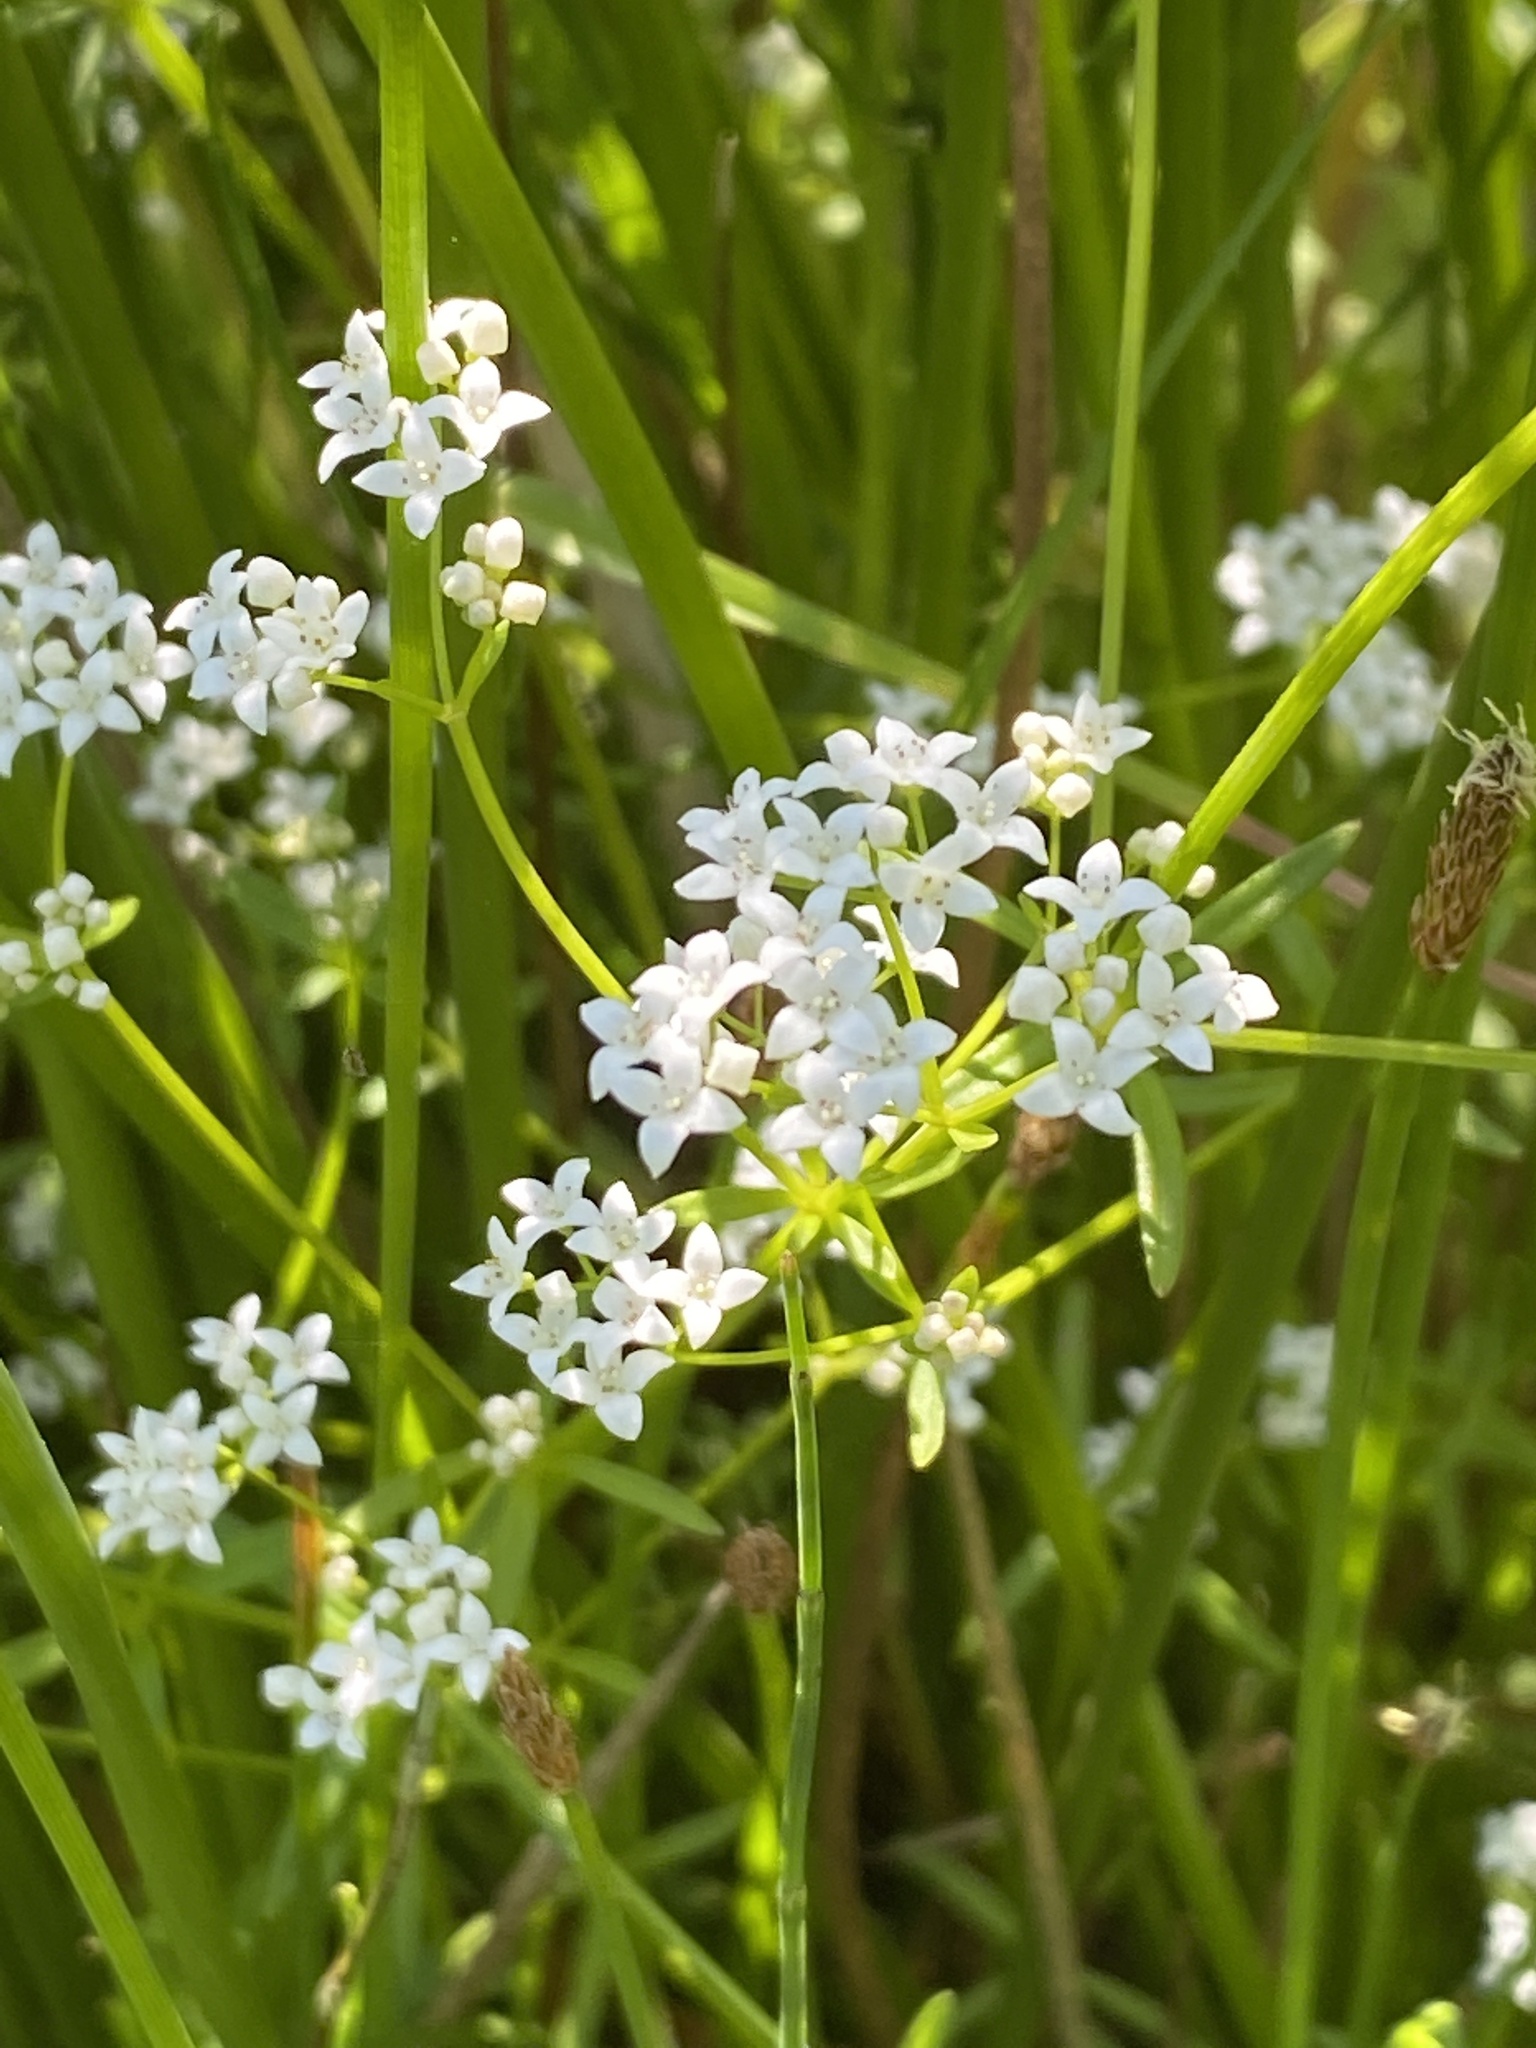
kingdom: Plantae
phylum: Tracheophyta
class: Magnoliopsida
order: Gentianales
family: Rubiaceae
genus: Galium
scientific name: Galium palustre
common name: Common marsh-bedstraw
